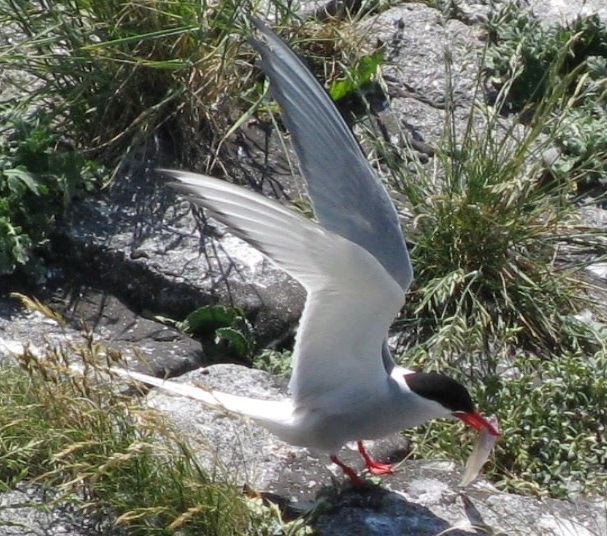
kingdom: Animalia
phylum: Chordata
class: Aves
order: Charadriiformes
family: Laridae
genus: Sterna
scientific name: Sterna paradisaea
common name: Arctic tern
